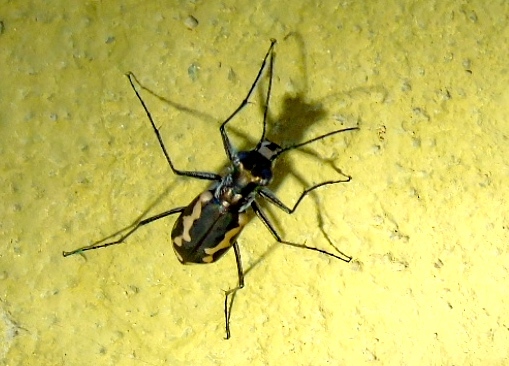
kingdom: Animalia
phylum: Arthropoda
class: Insecta
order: Coleoptera
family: Carabidae
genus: Cicindela
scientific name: Cicindela hydrophoba
